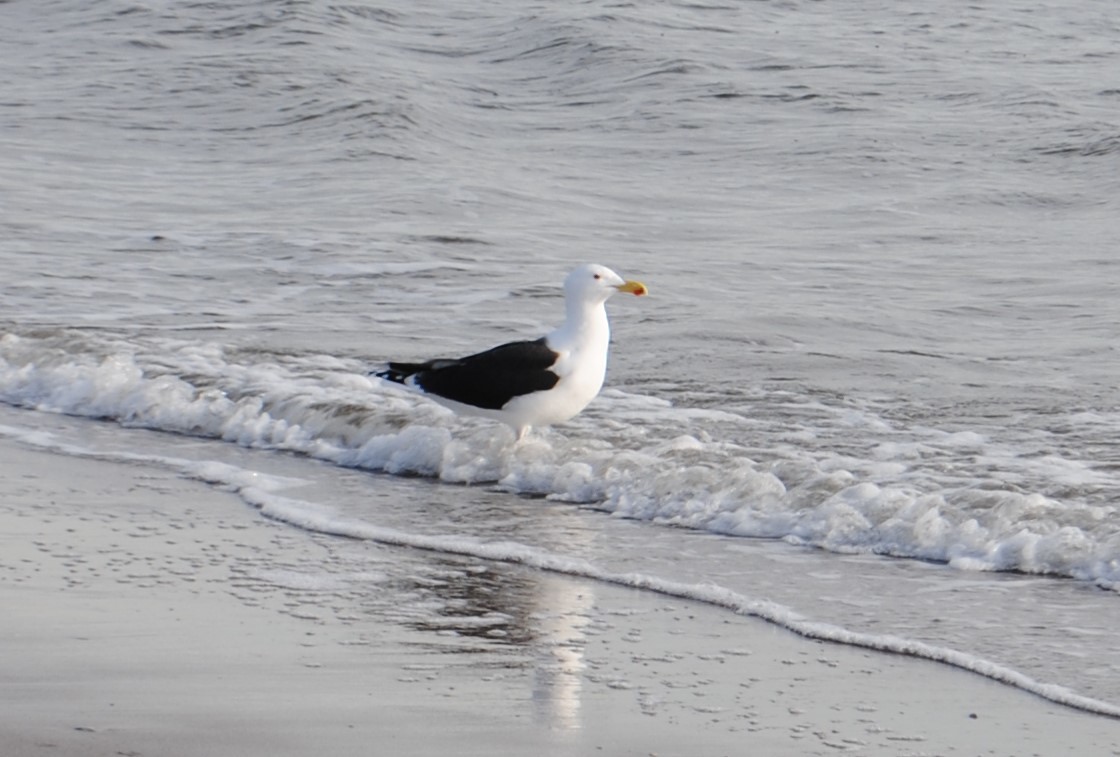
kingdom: Animalia
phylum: Chordata
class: Aves
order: Charadriiformes
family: Laridae
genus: Larus
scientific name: Larus marinus
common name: Great black-backed gull
